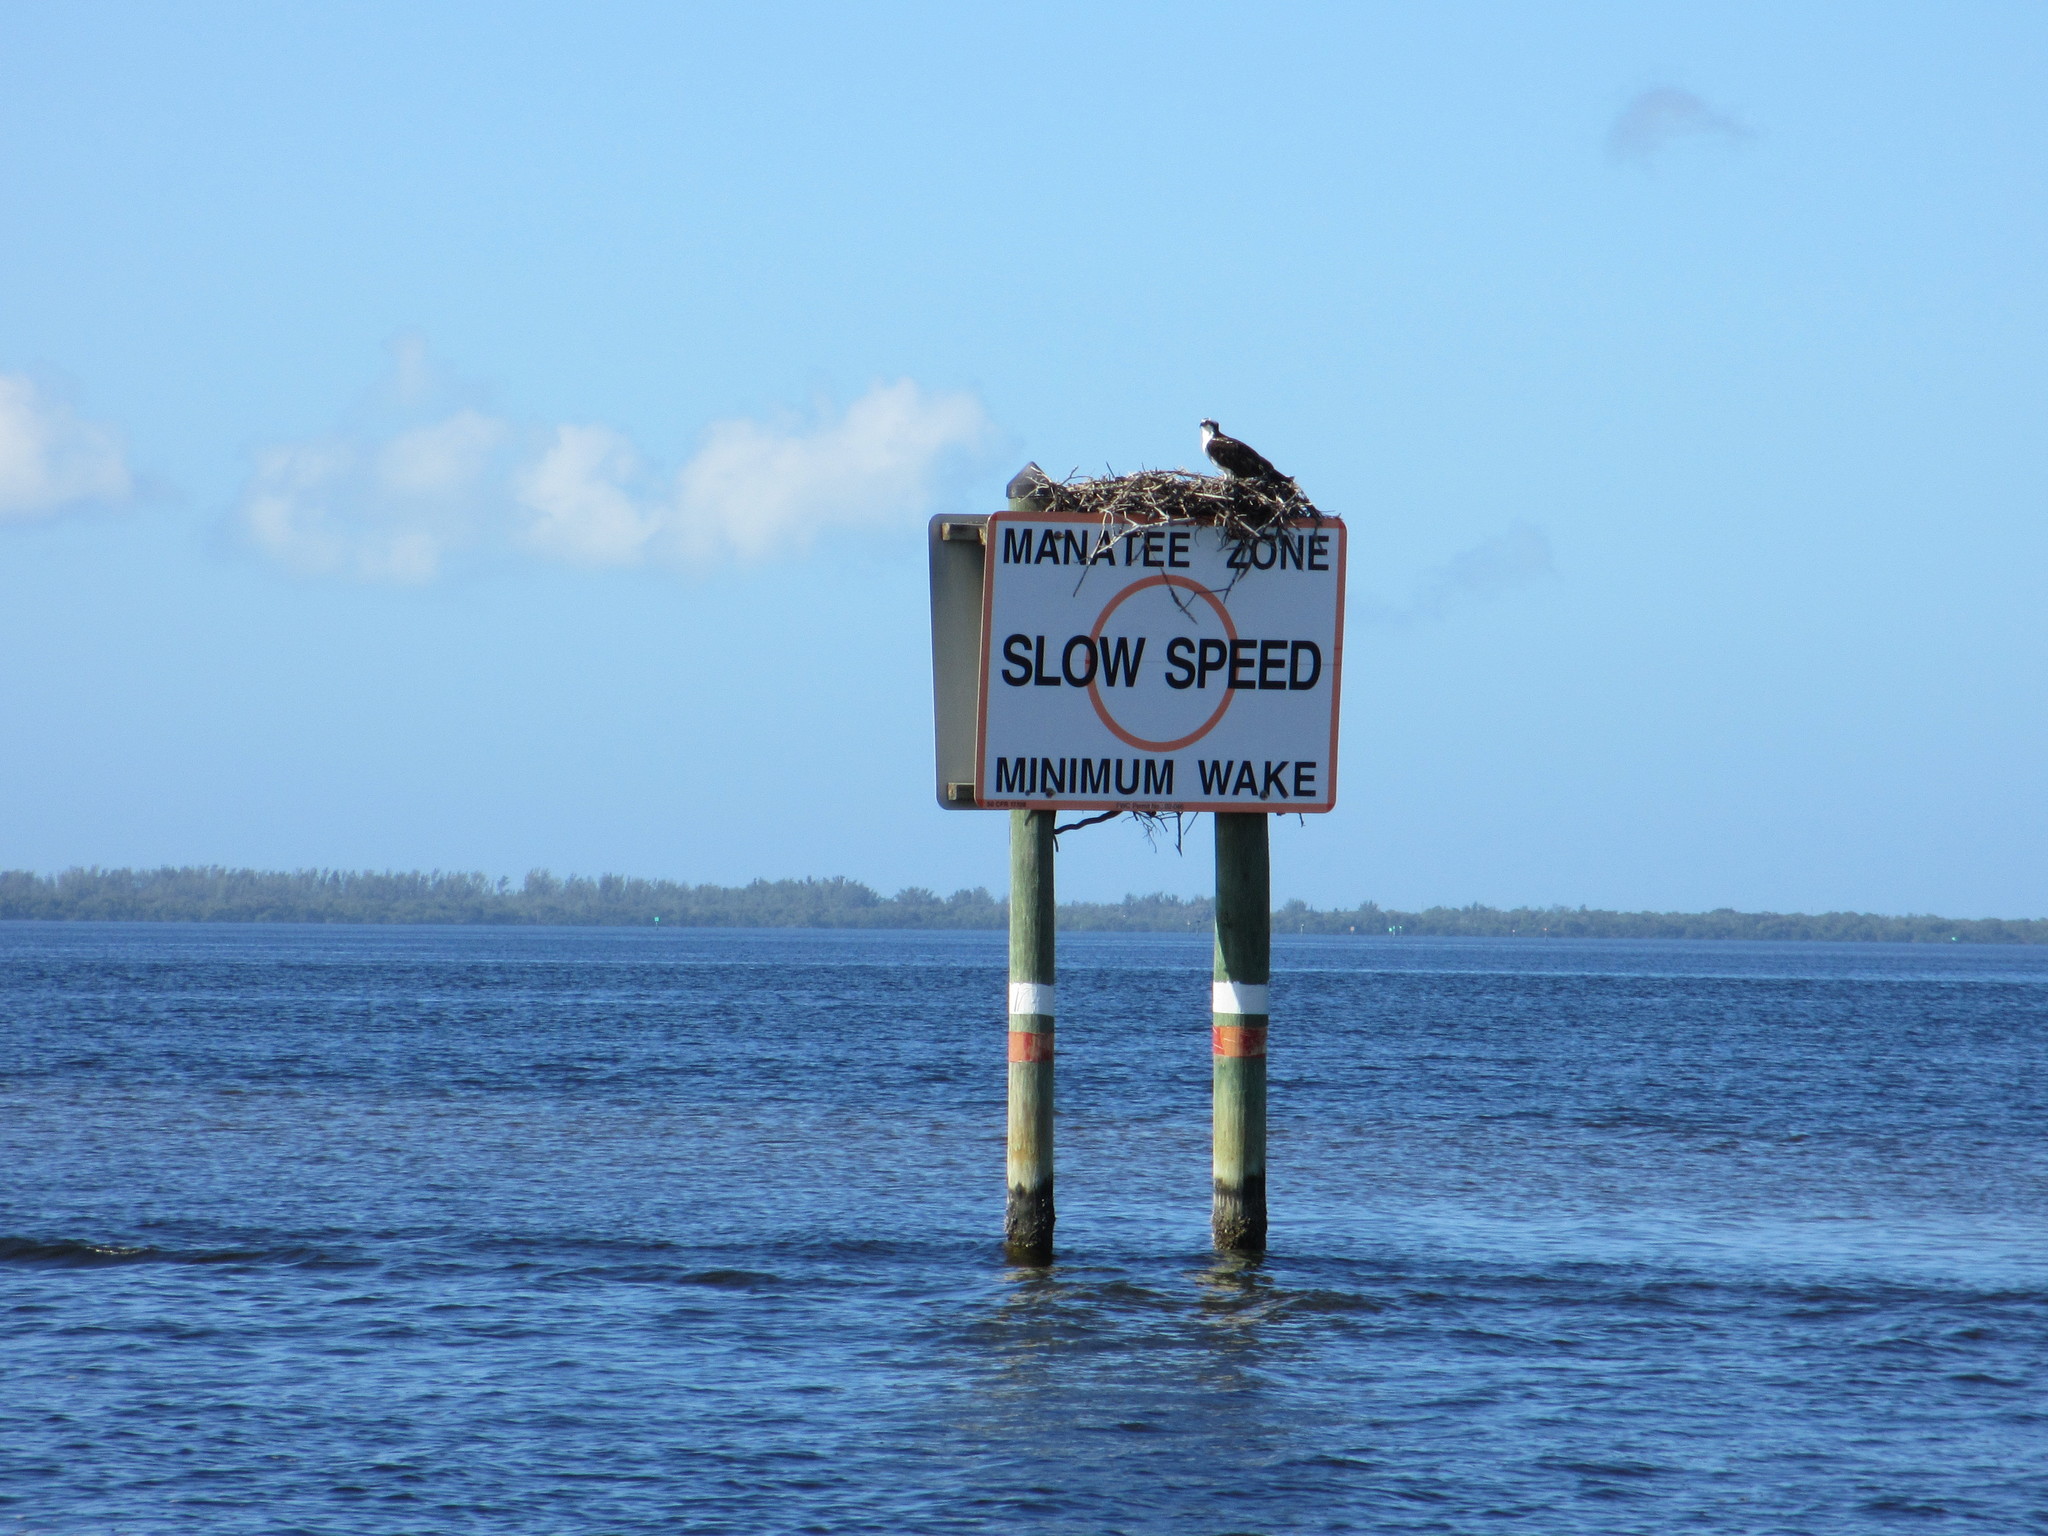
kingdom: Animalia
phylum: Chordata
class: Aves
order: Accipitriformes
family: Pandionidae
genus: Pandion
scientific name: Pandion haliaetus
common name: Osprey
